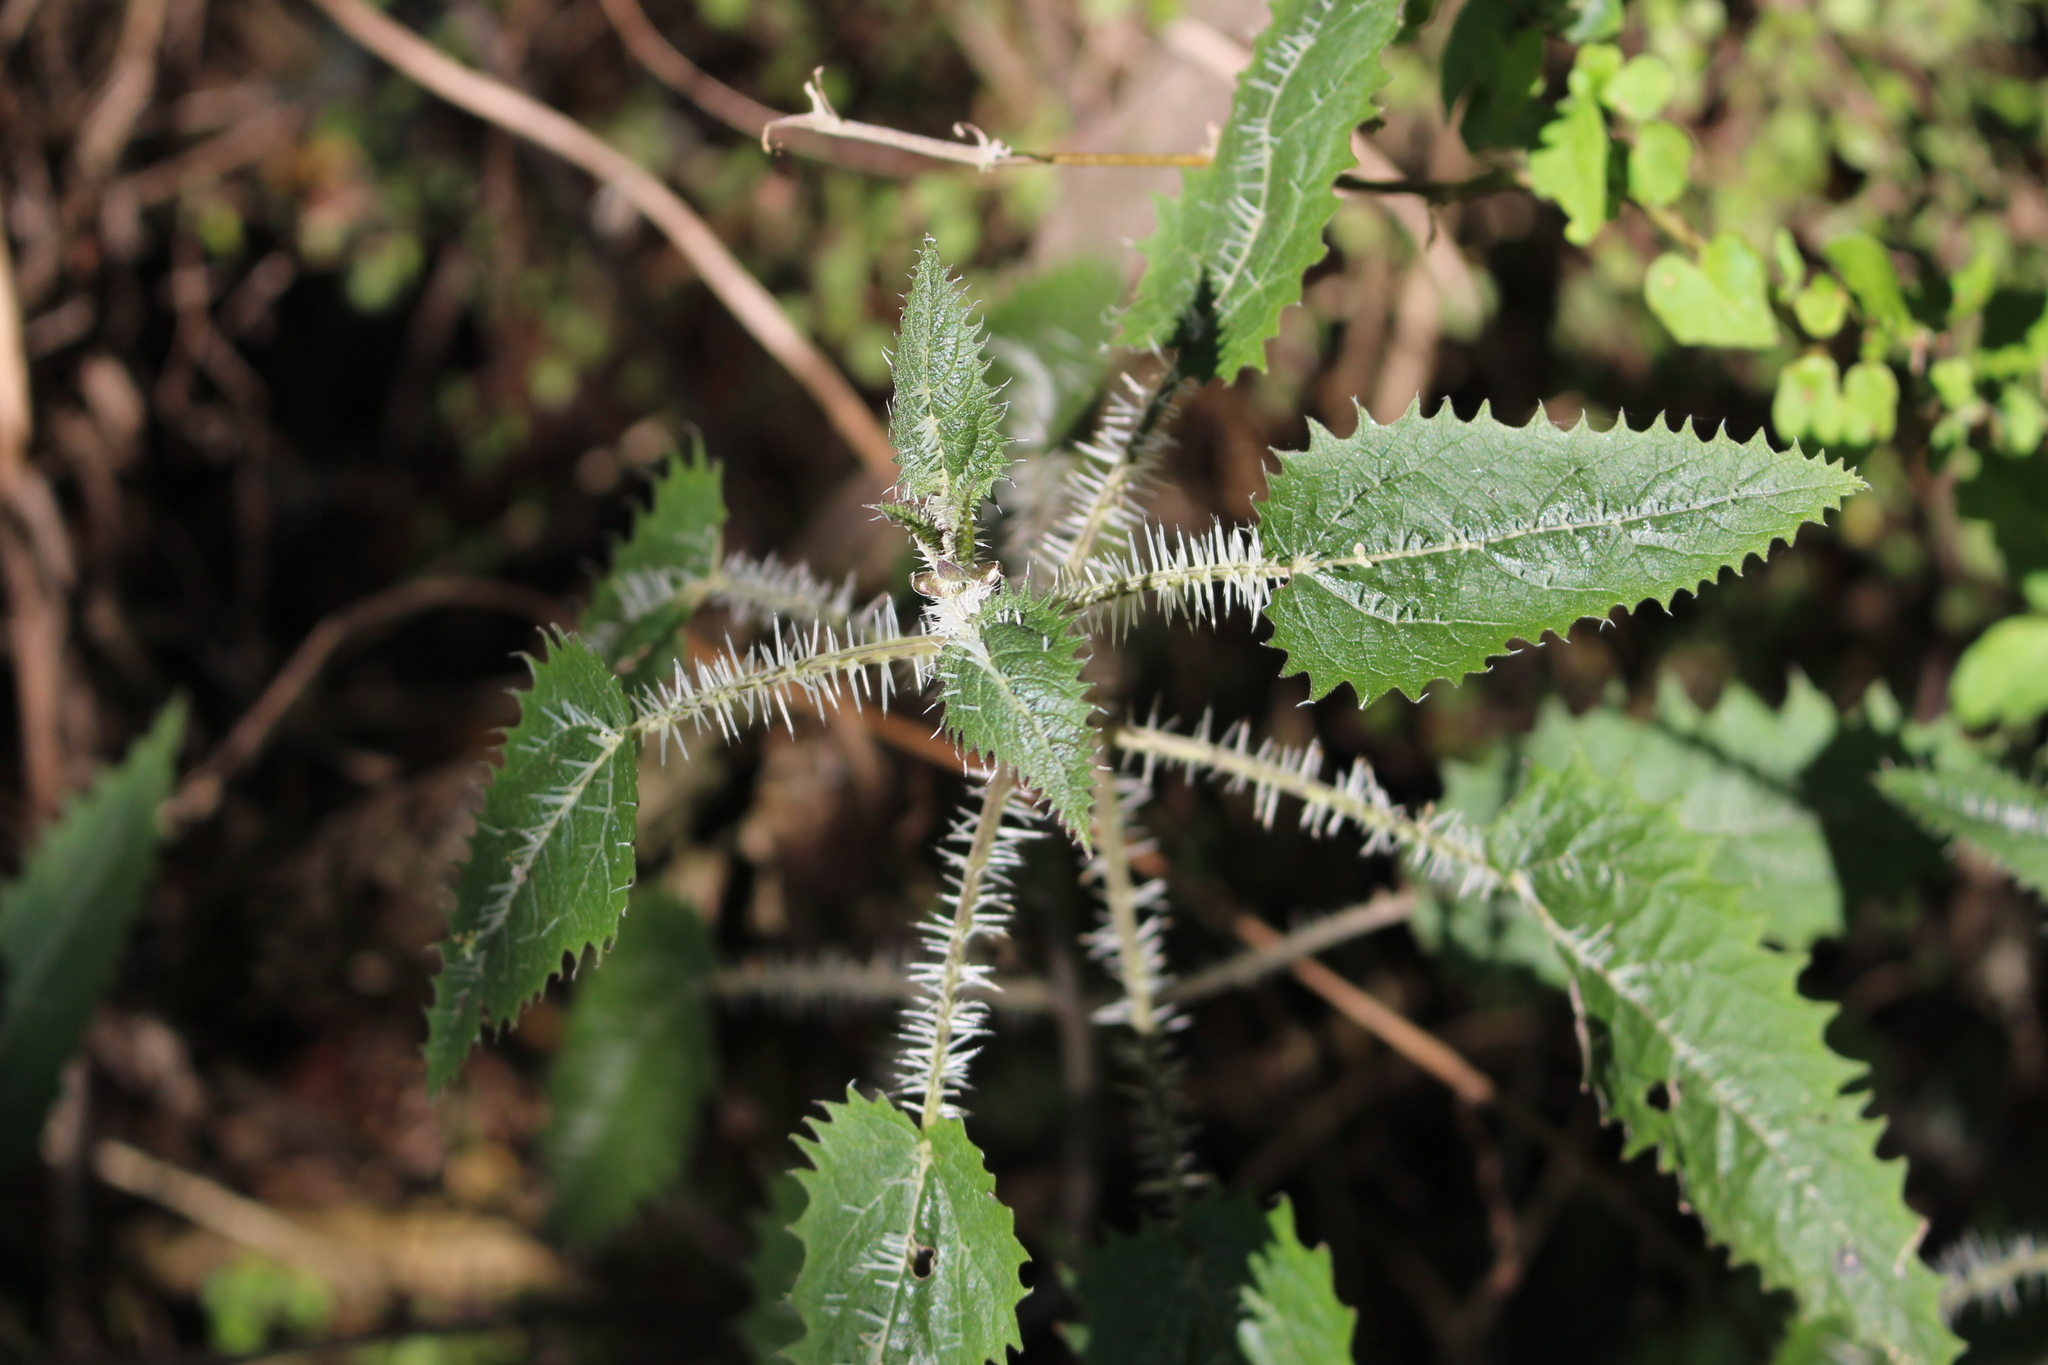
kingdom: Plantae
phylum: Tracheophyta
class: Magnoliopsida
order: Rosales
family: Urticaceae
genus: Urtica
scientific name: Urtica ferox
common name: Tree nettle
